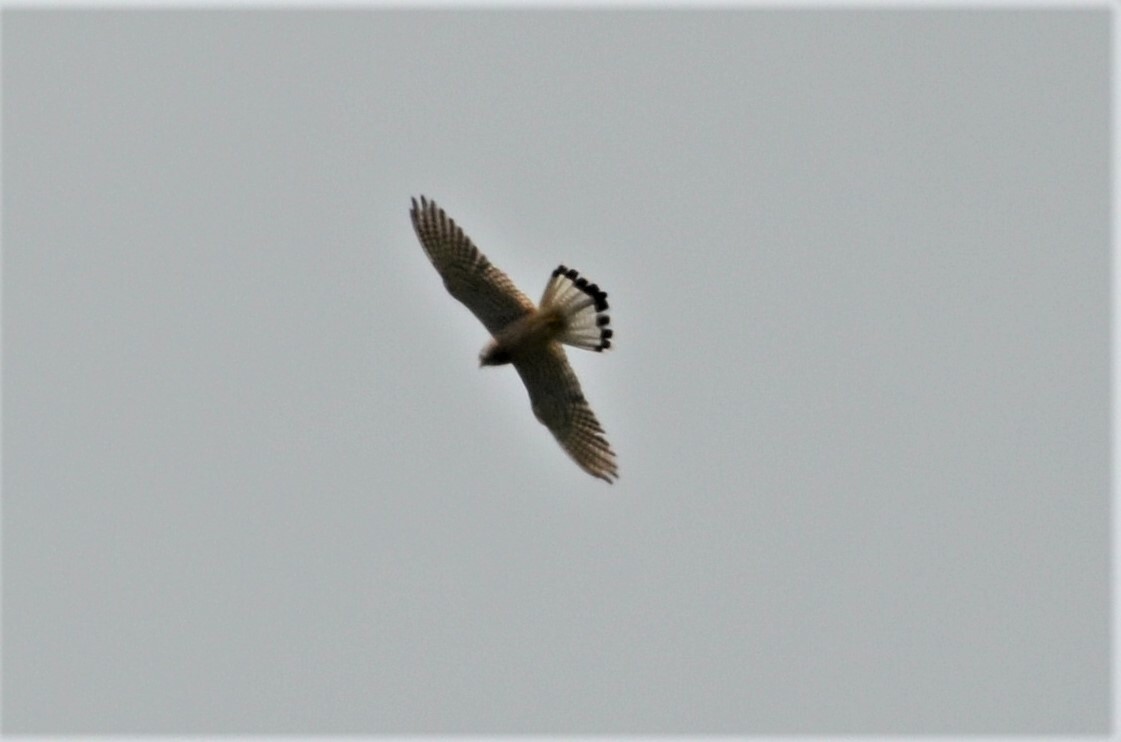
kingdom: Animalia
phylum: Chordata
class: Aves
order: Falconiformes
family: Falconidae
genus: Falco
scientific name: Falco tinnunculus
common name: Common kestrel
